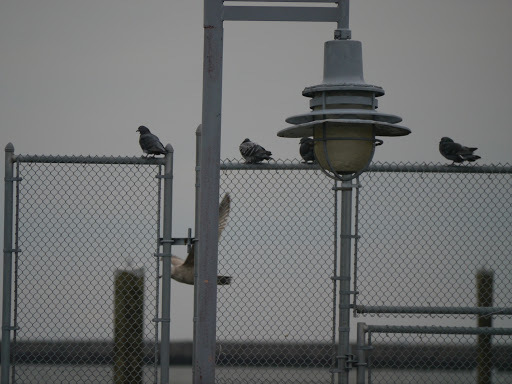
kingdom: Animalia
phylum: Chordata
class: Aves
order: Columbiformes
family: Columbidae
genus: Columba
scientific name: Columba livia
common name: Rock pigeon
